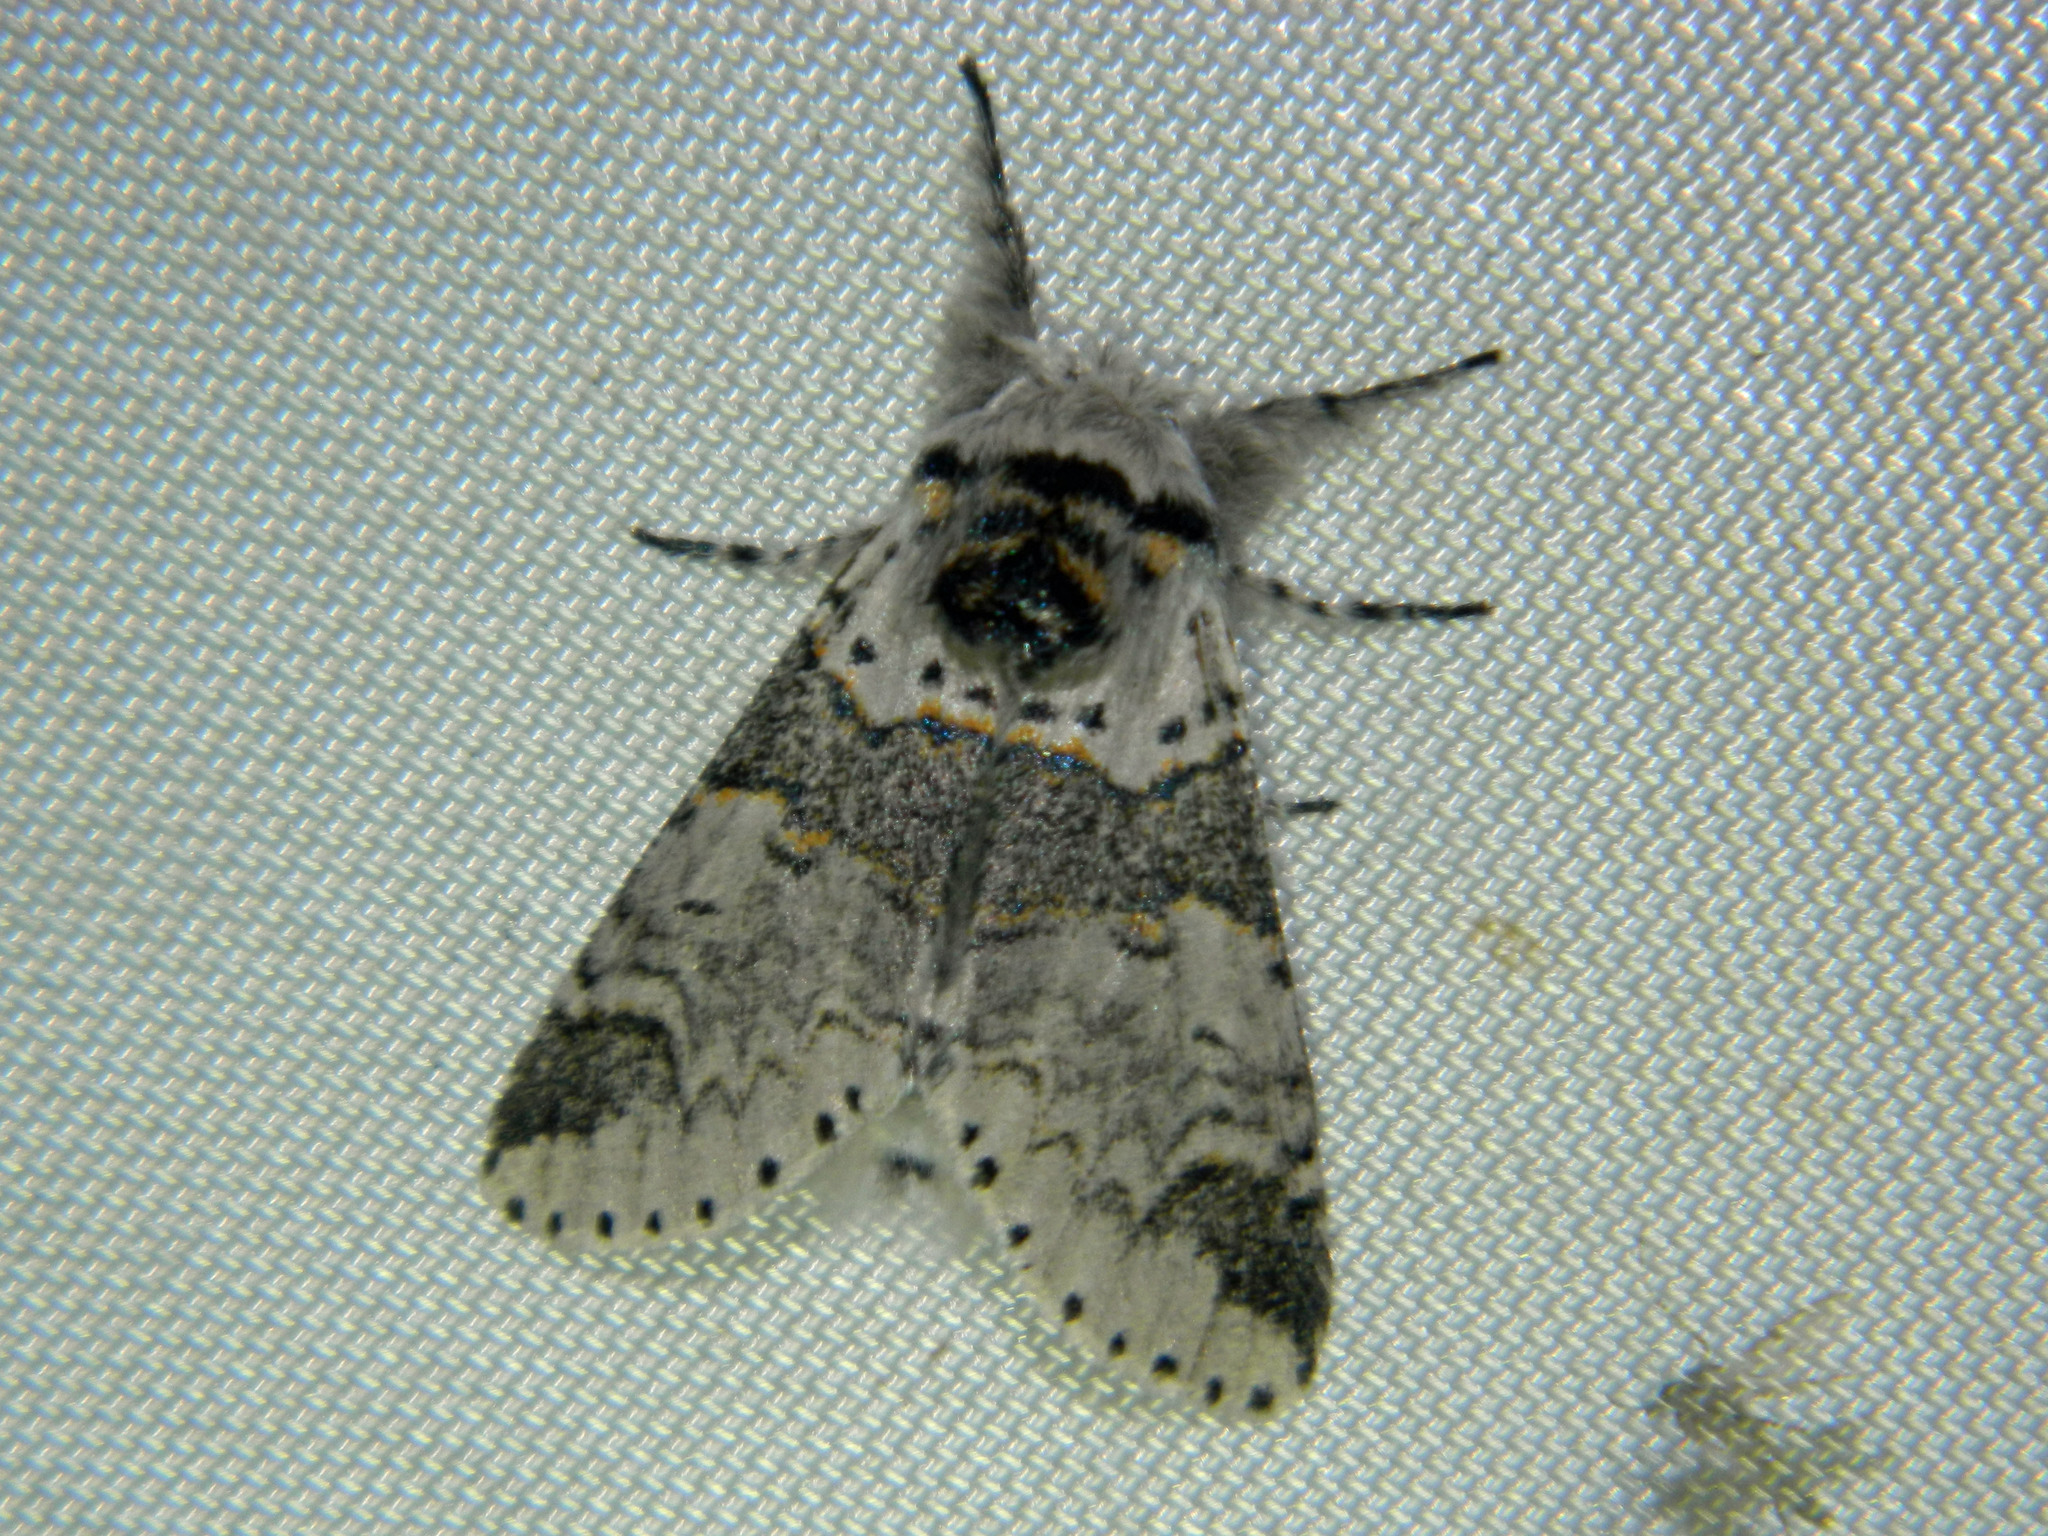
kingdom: Animalia
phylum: Arthropoda
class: Insecta
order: Lepidoptera
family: Notodontidae
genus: Furcula
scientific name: Furcula occidentalis
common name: Western furcula moth
